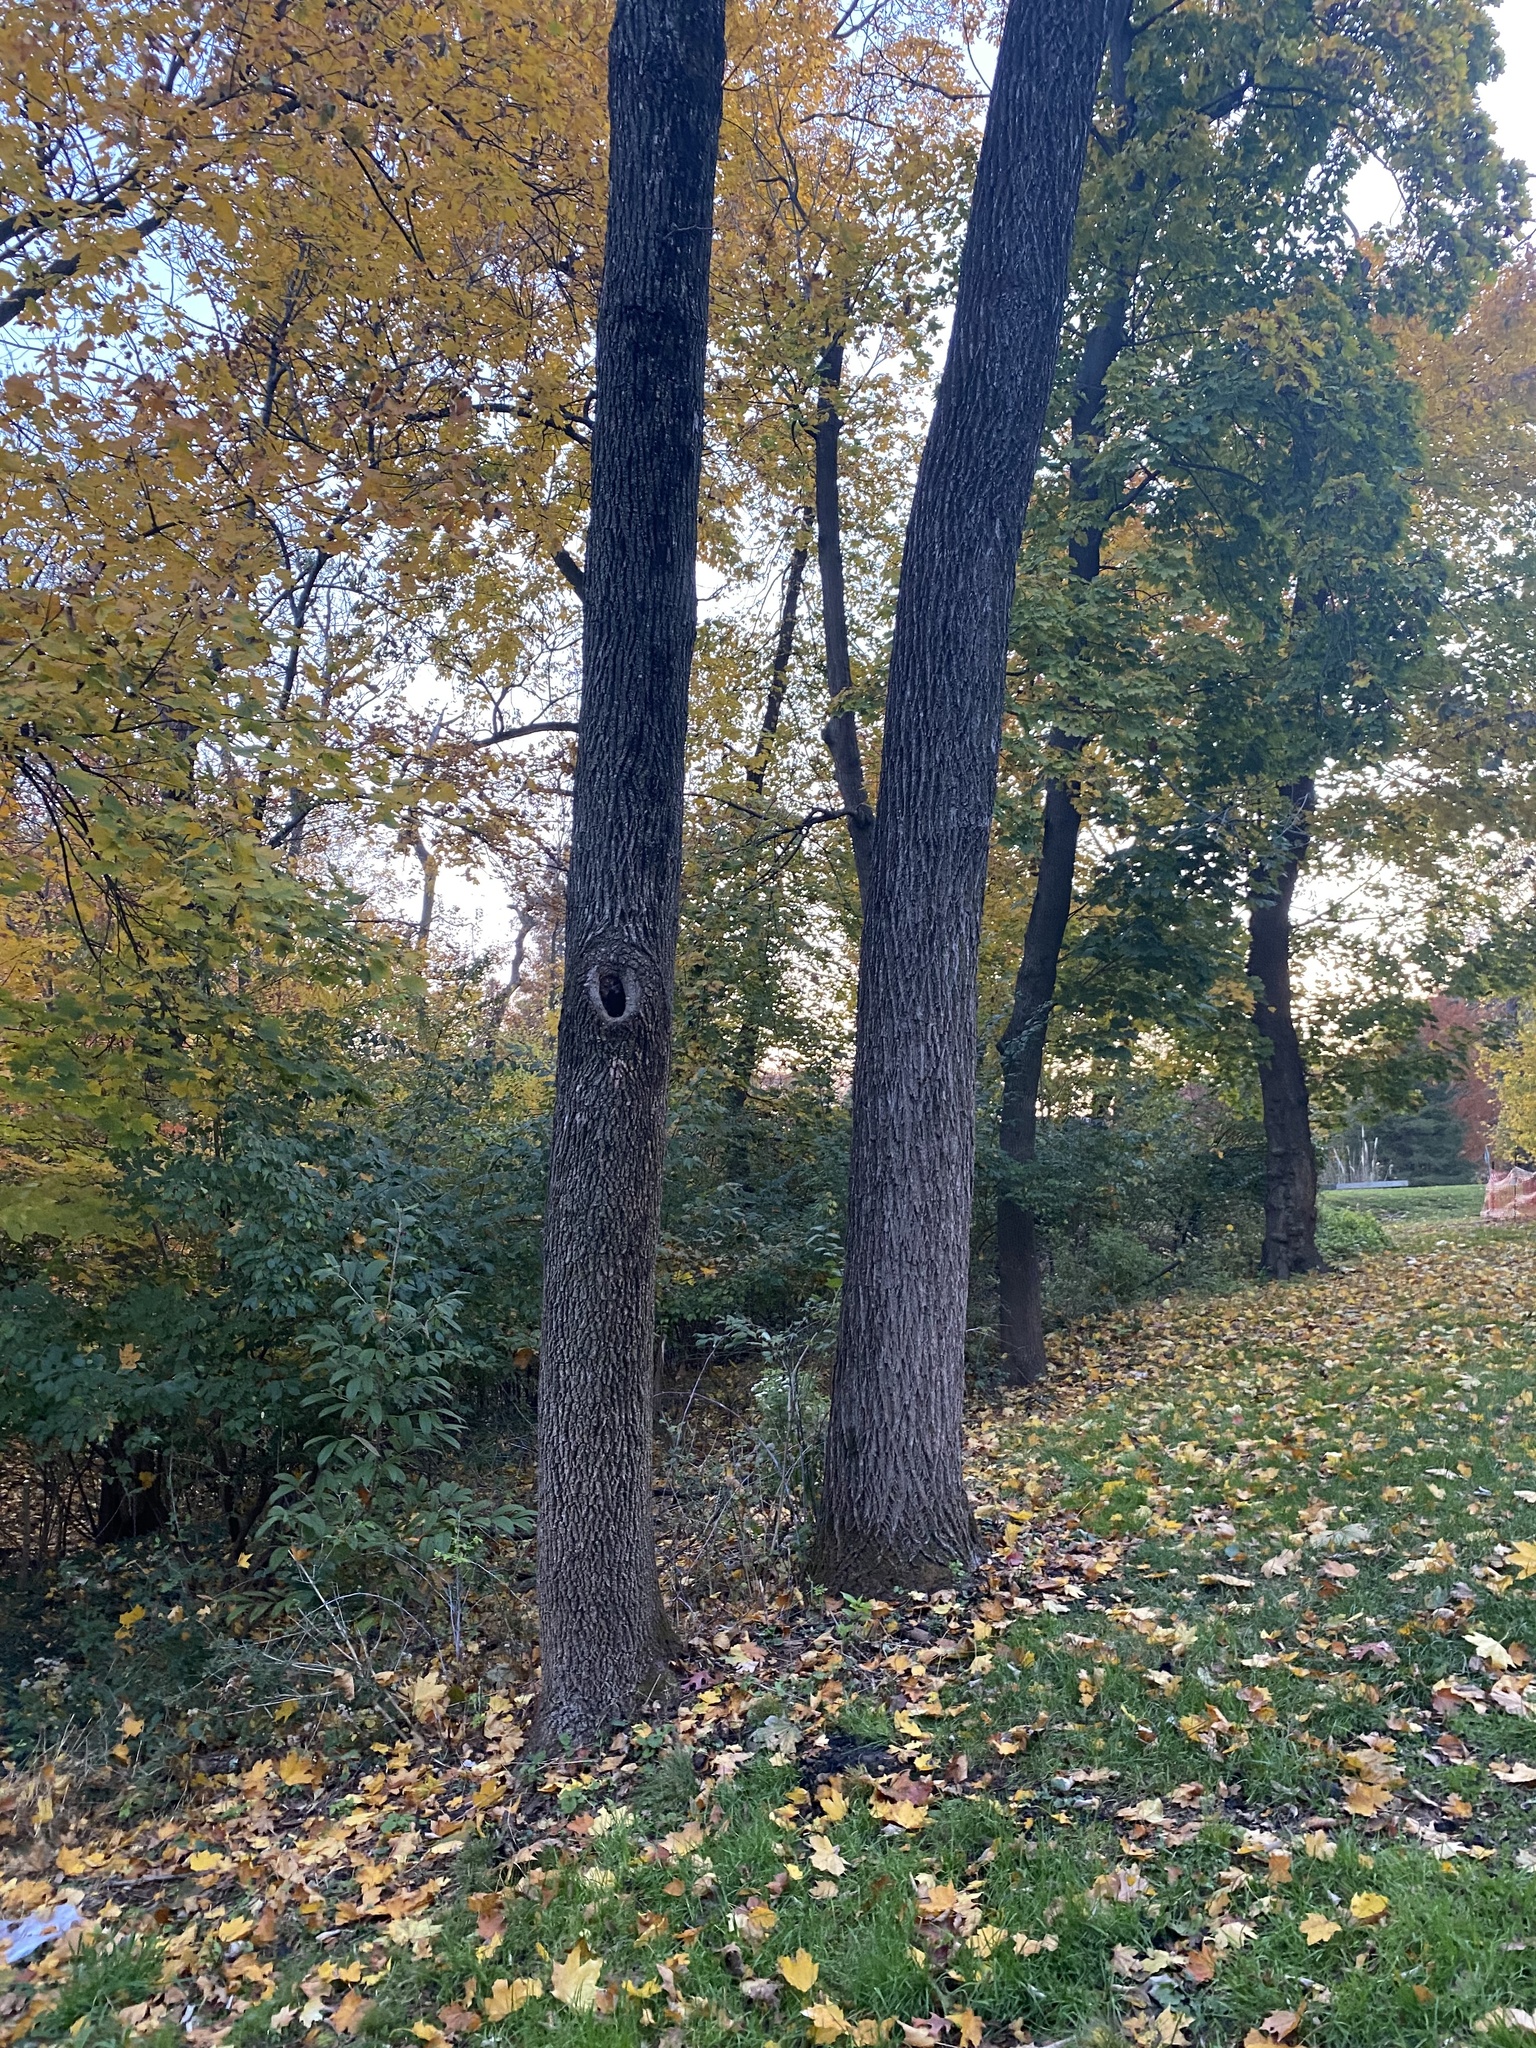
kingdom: Plantae
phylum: Tracheophyta
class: Magnoliopsida
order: Fagales
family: Juglandaceae
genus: Juglans
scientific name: Juglans nigra
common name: Black walnut
